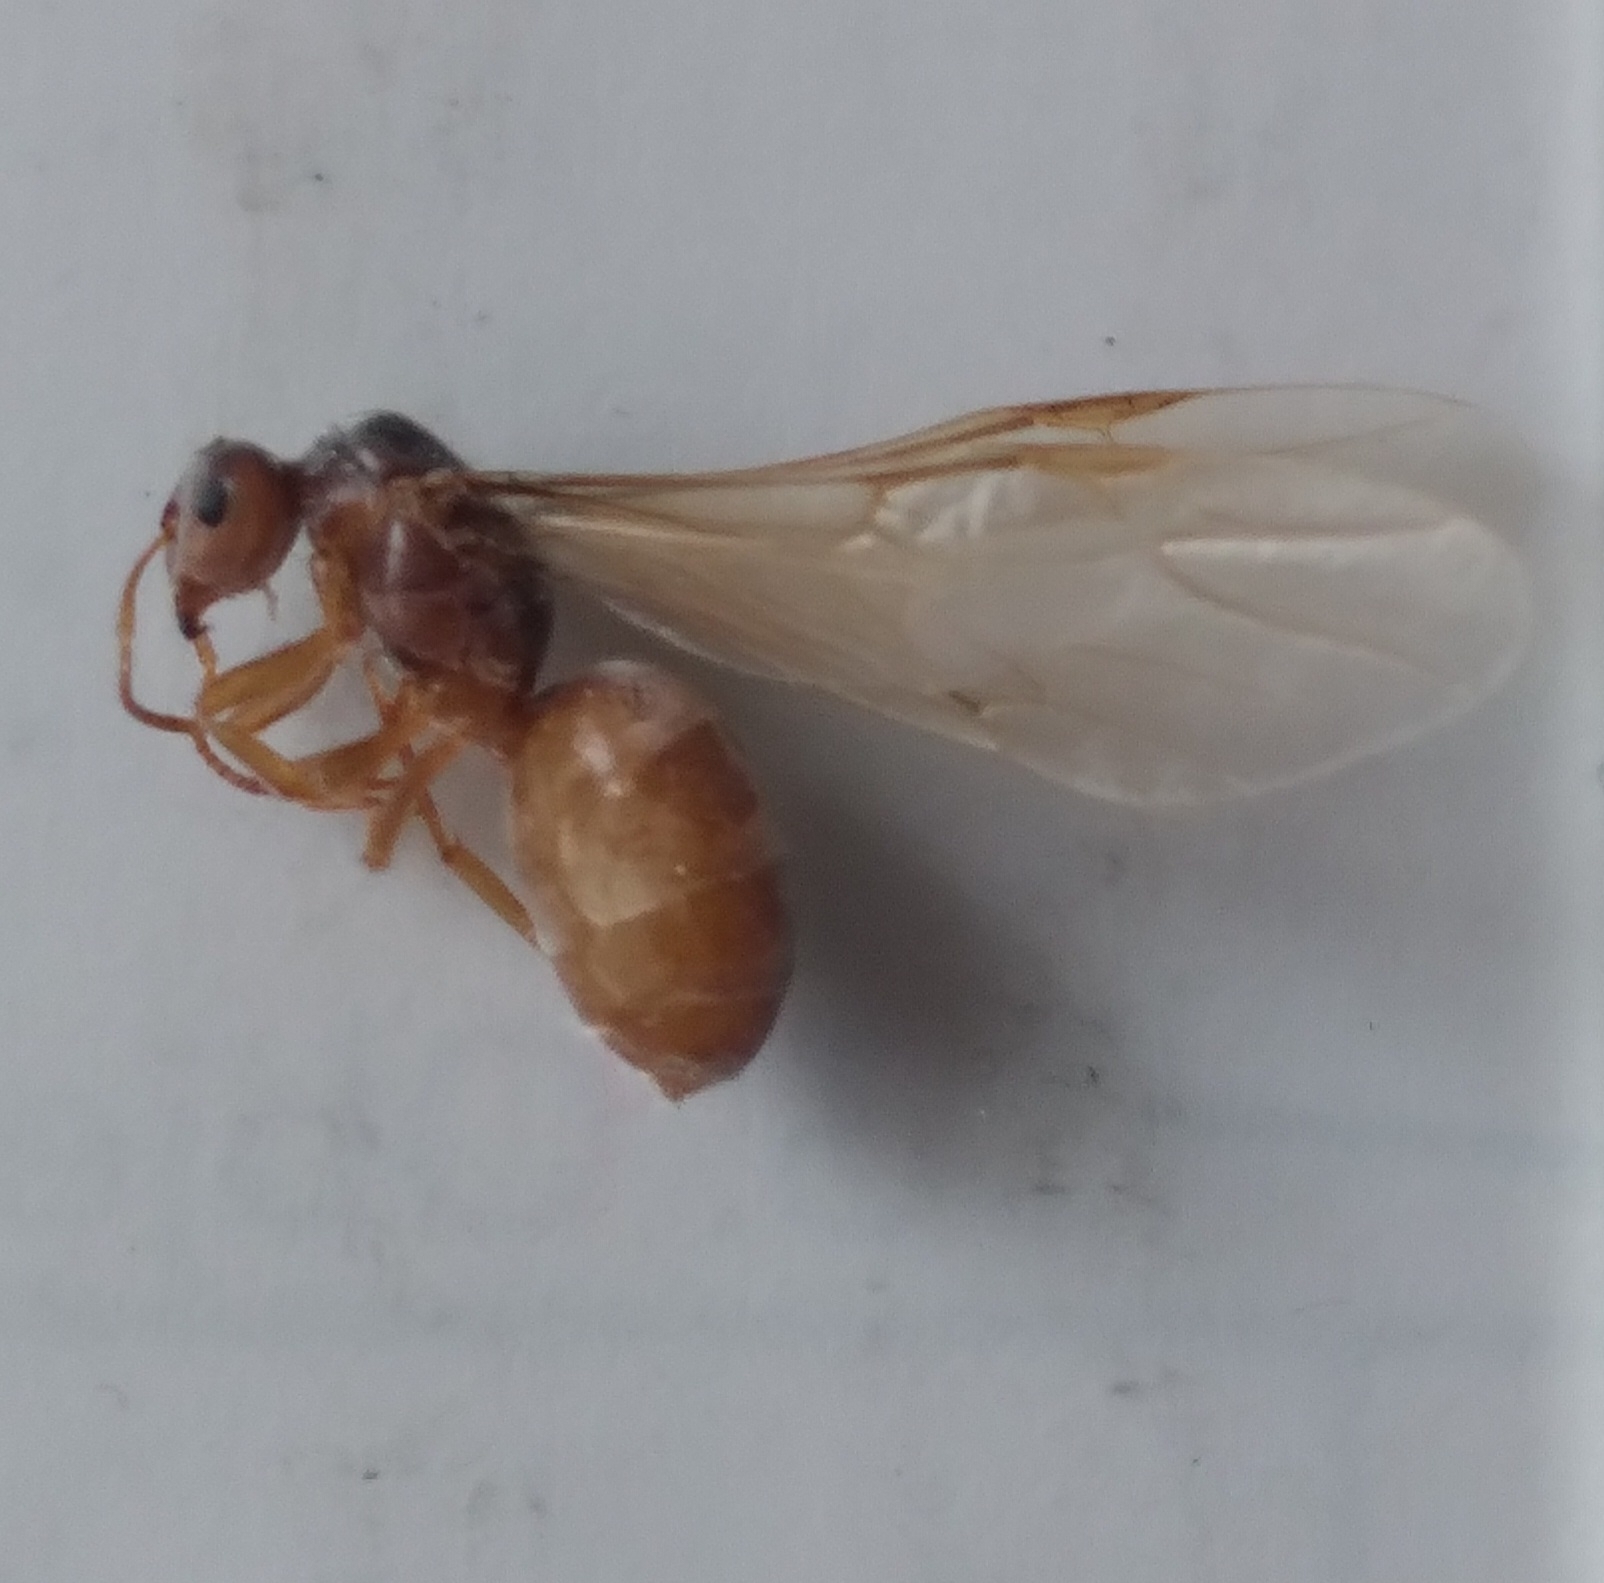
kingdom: Animalia
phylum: Arthropoda
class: Insecta
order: Hymenoptera
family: Formicidae
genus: Lasius
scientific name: Lasius
